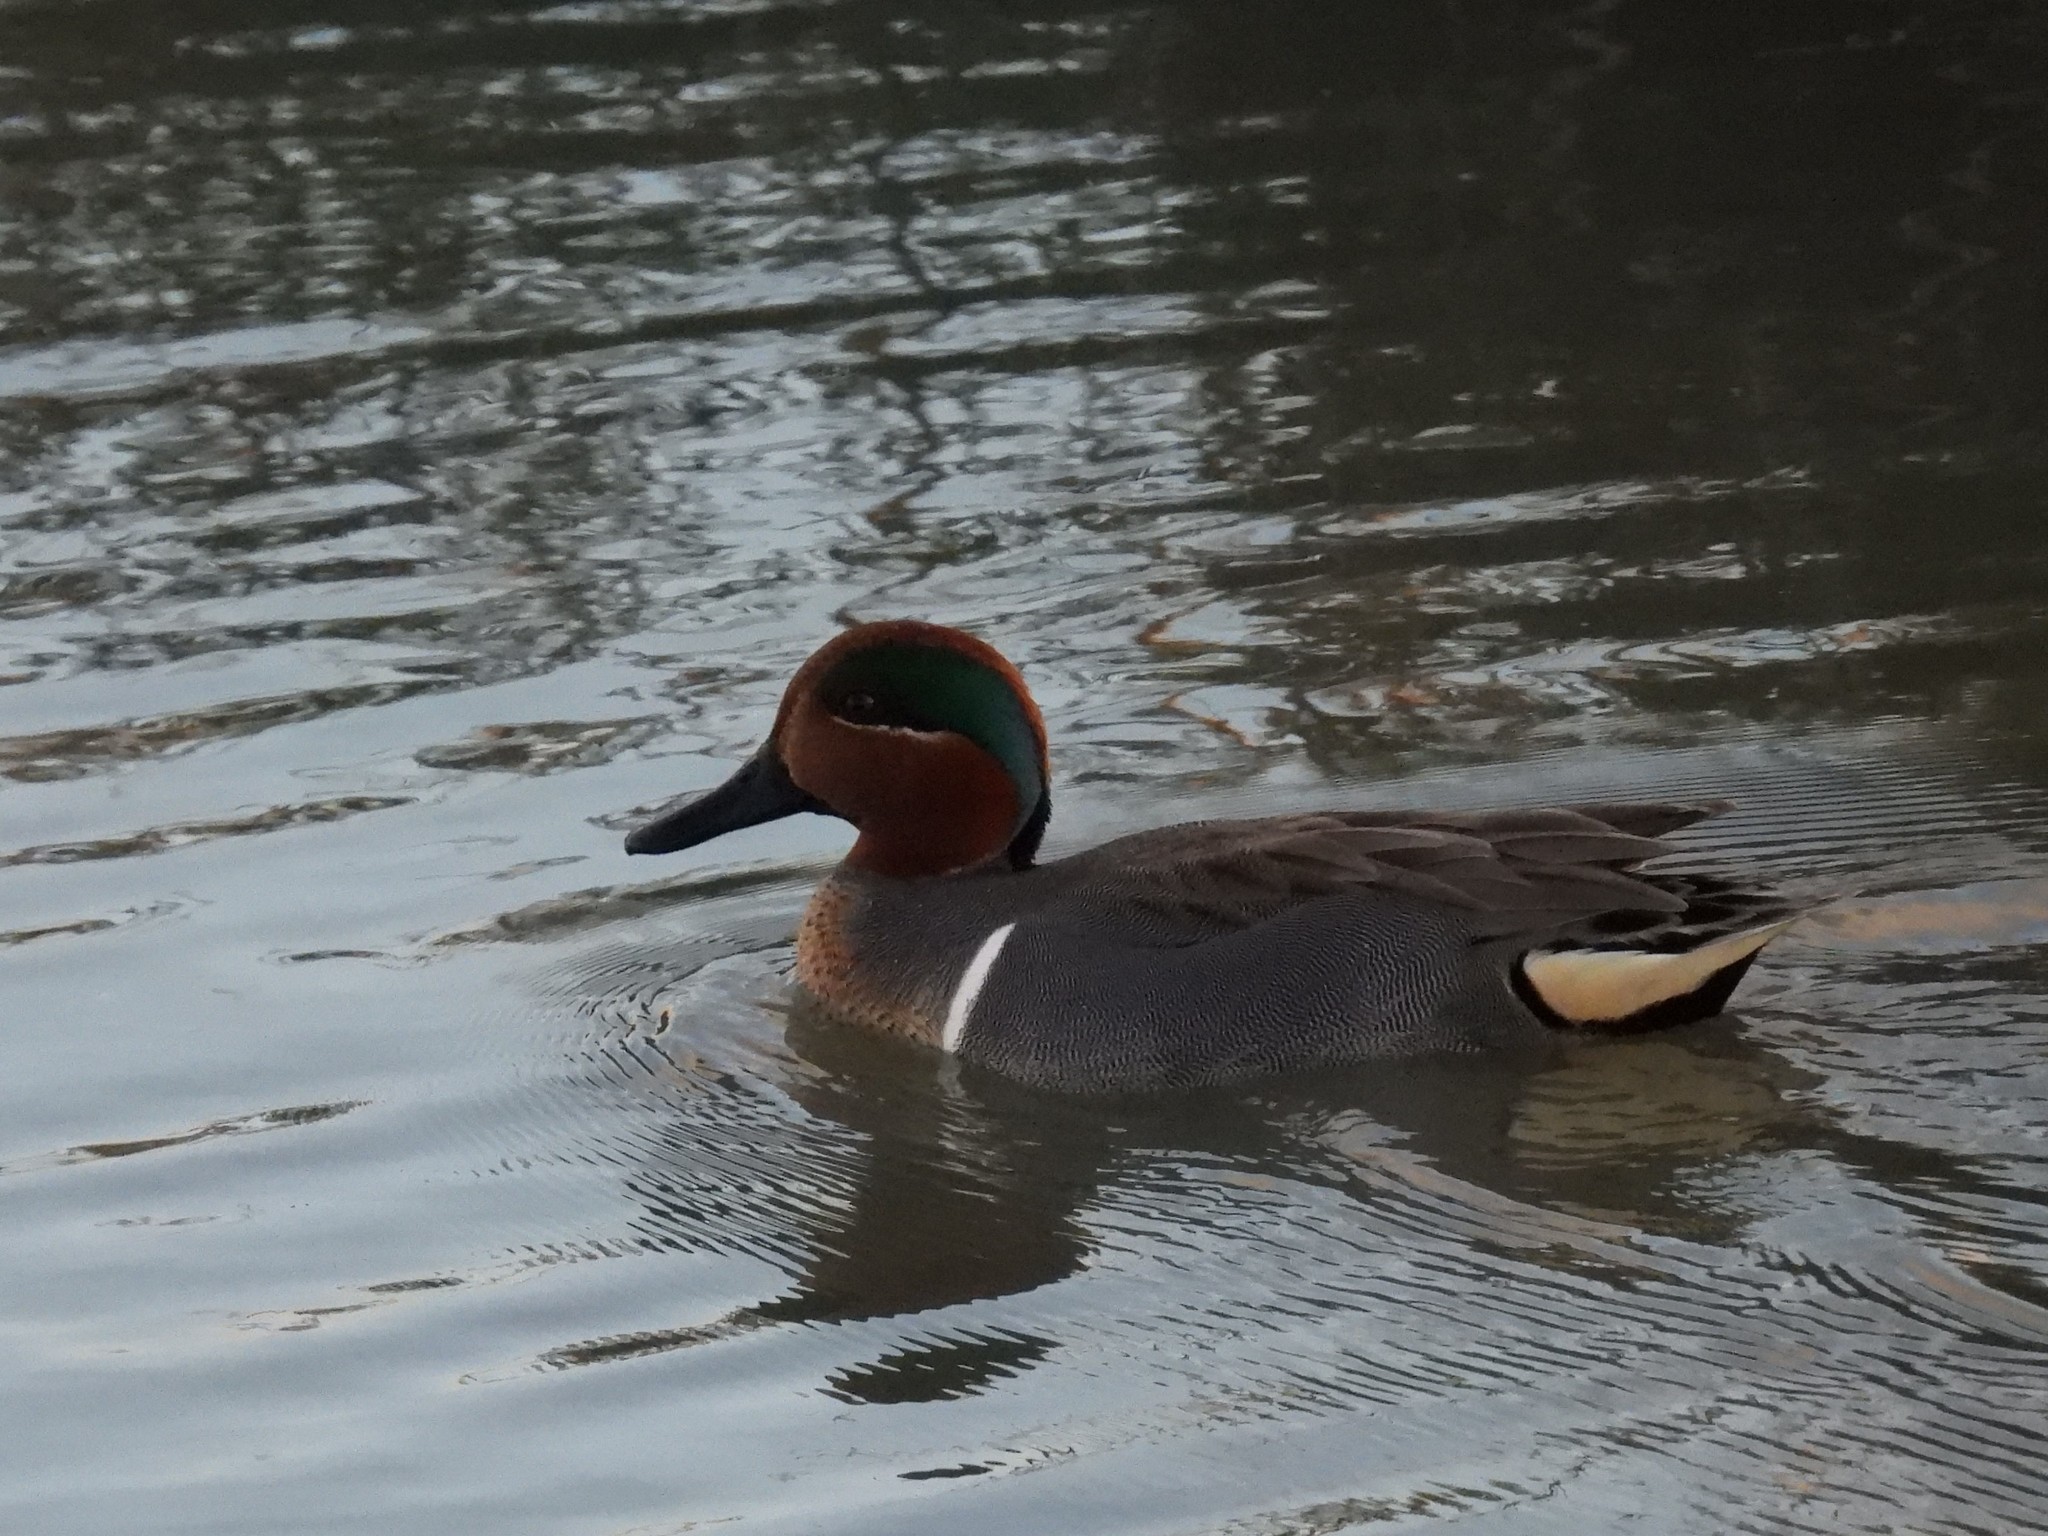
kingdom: Animalia
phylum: Chordata
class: Aves
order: Anseriformes
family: Anatidae
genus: Anas
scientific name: Anas crecca
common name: Eurasian teal
